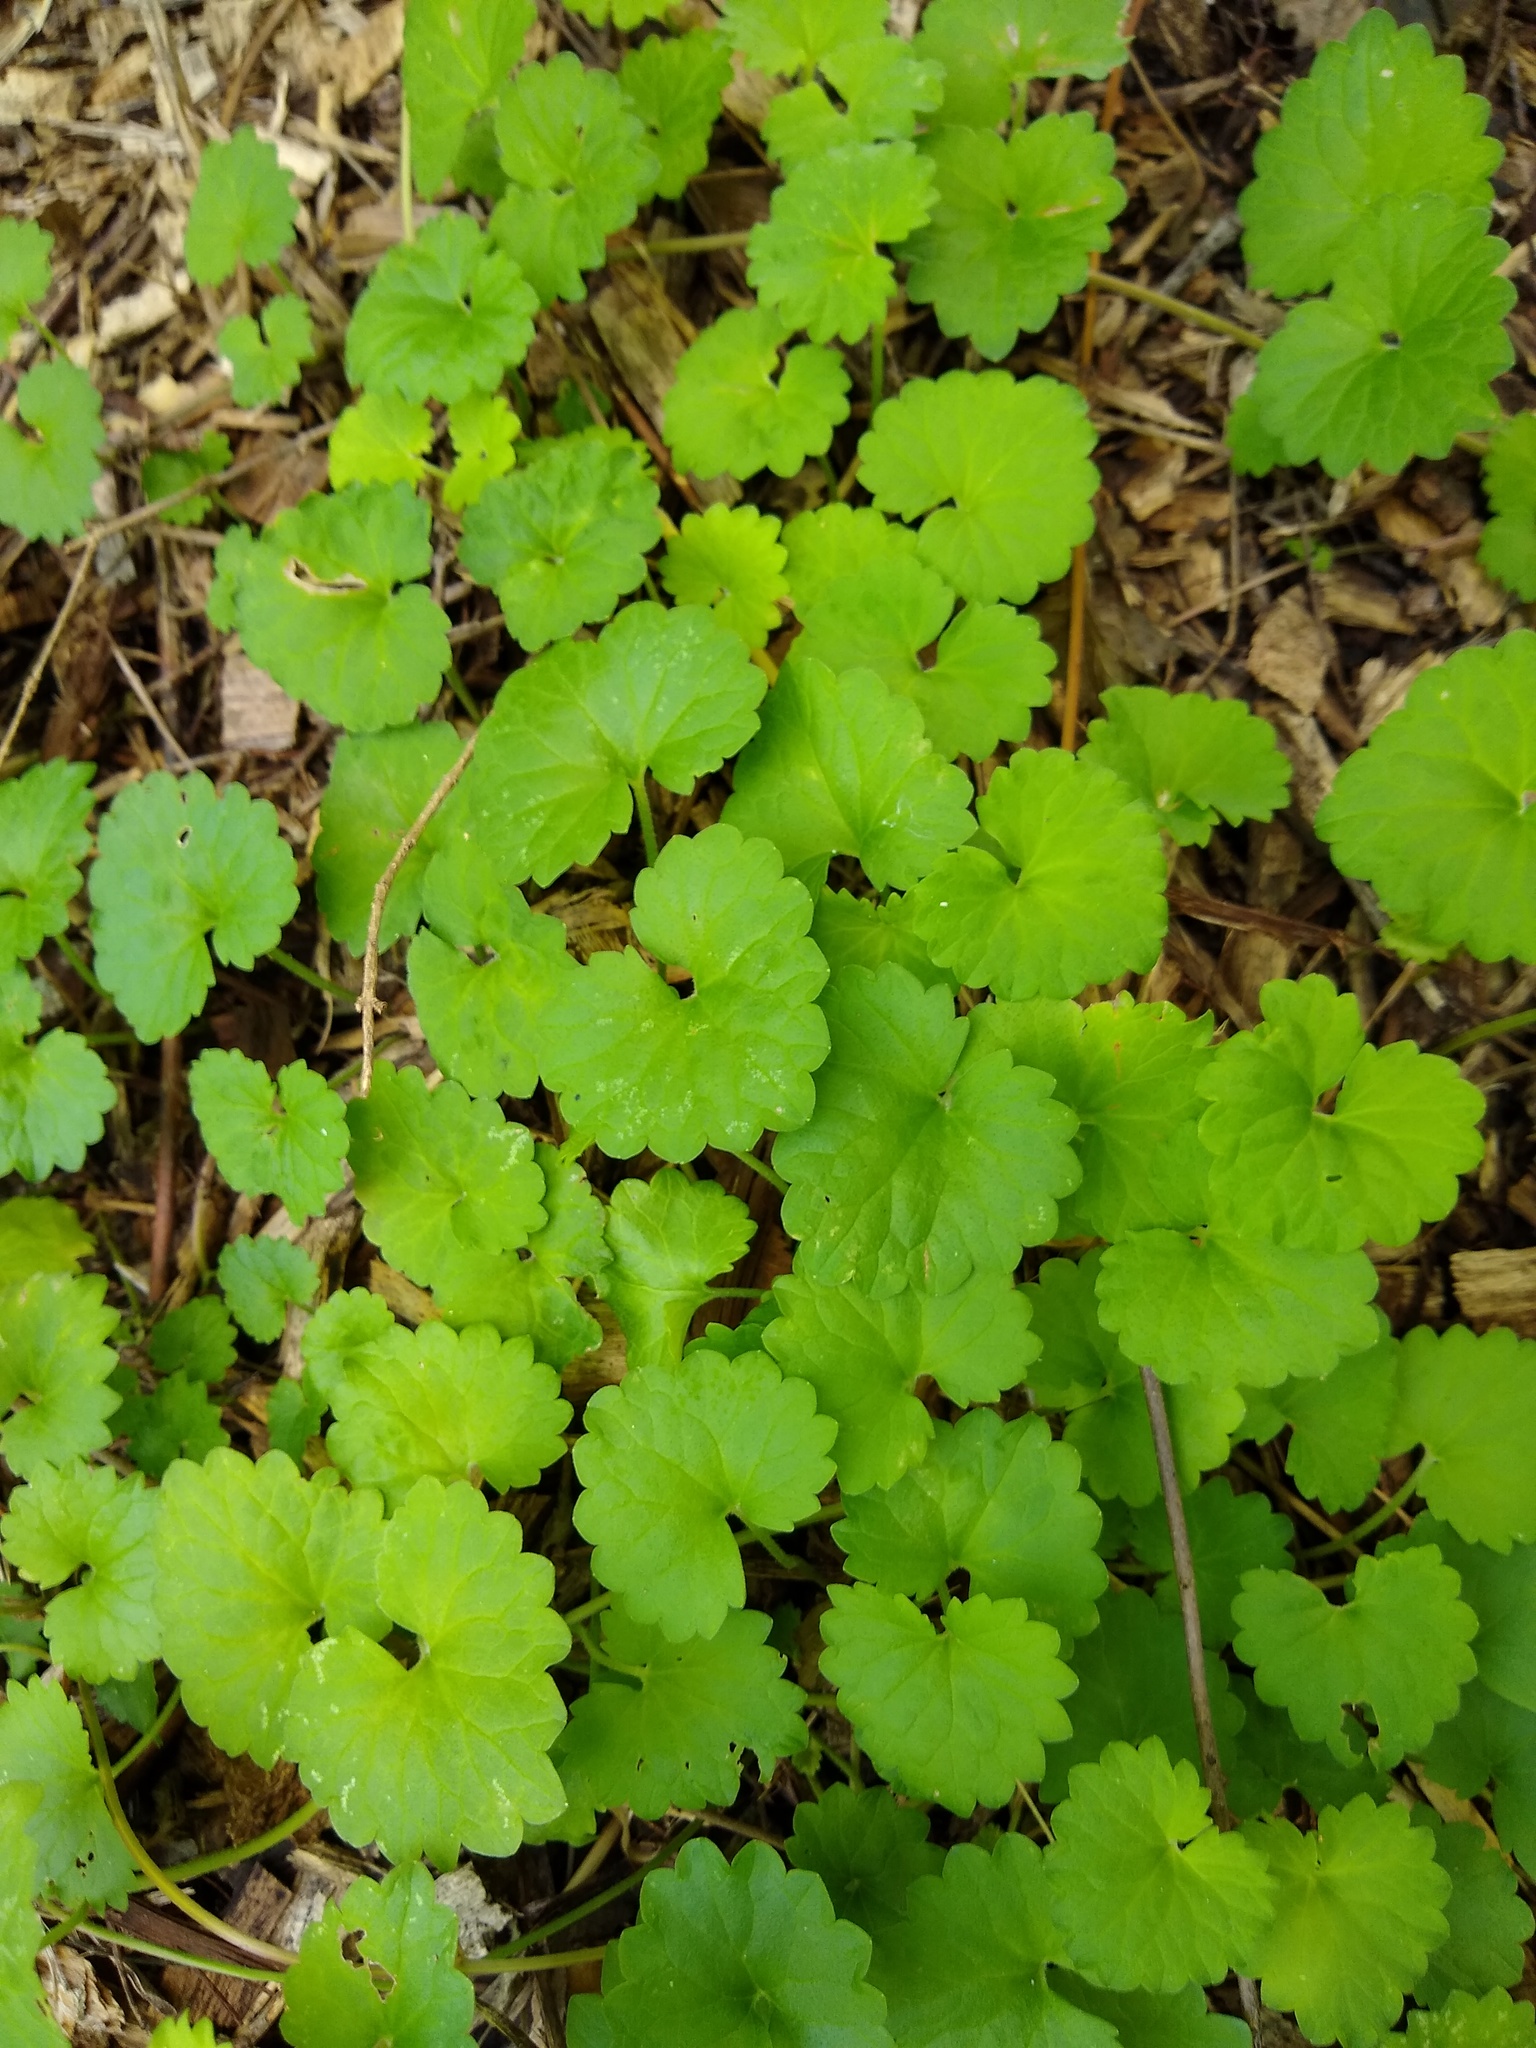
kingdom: Plantae
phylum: Tracheophyta
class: Magnoliopsida
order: Lamiales
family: Lamiaceae
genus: Glechoma
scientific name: Glechoma hederacea
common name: Ground ivy
